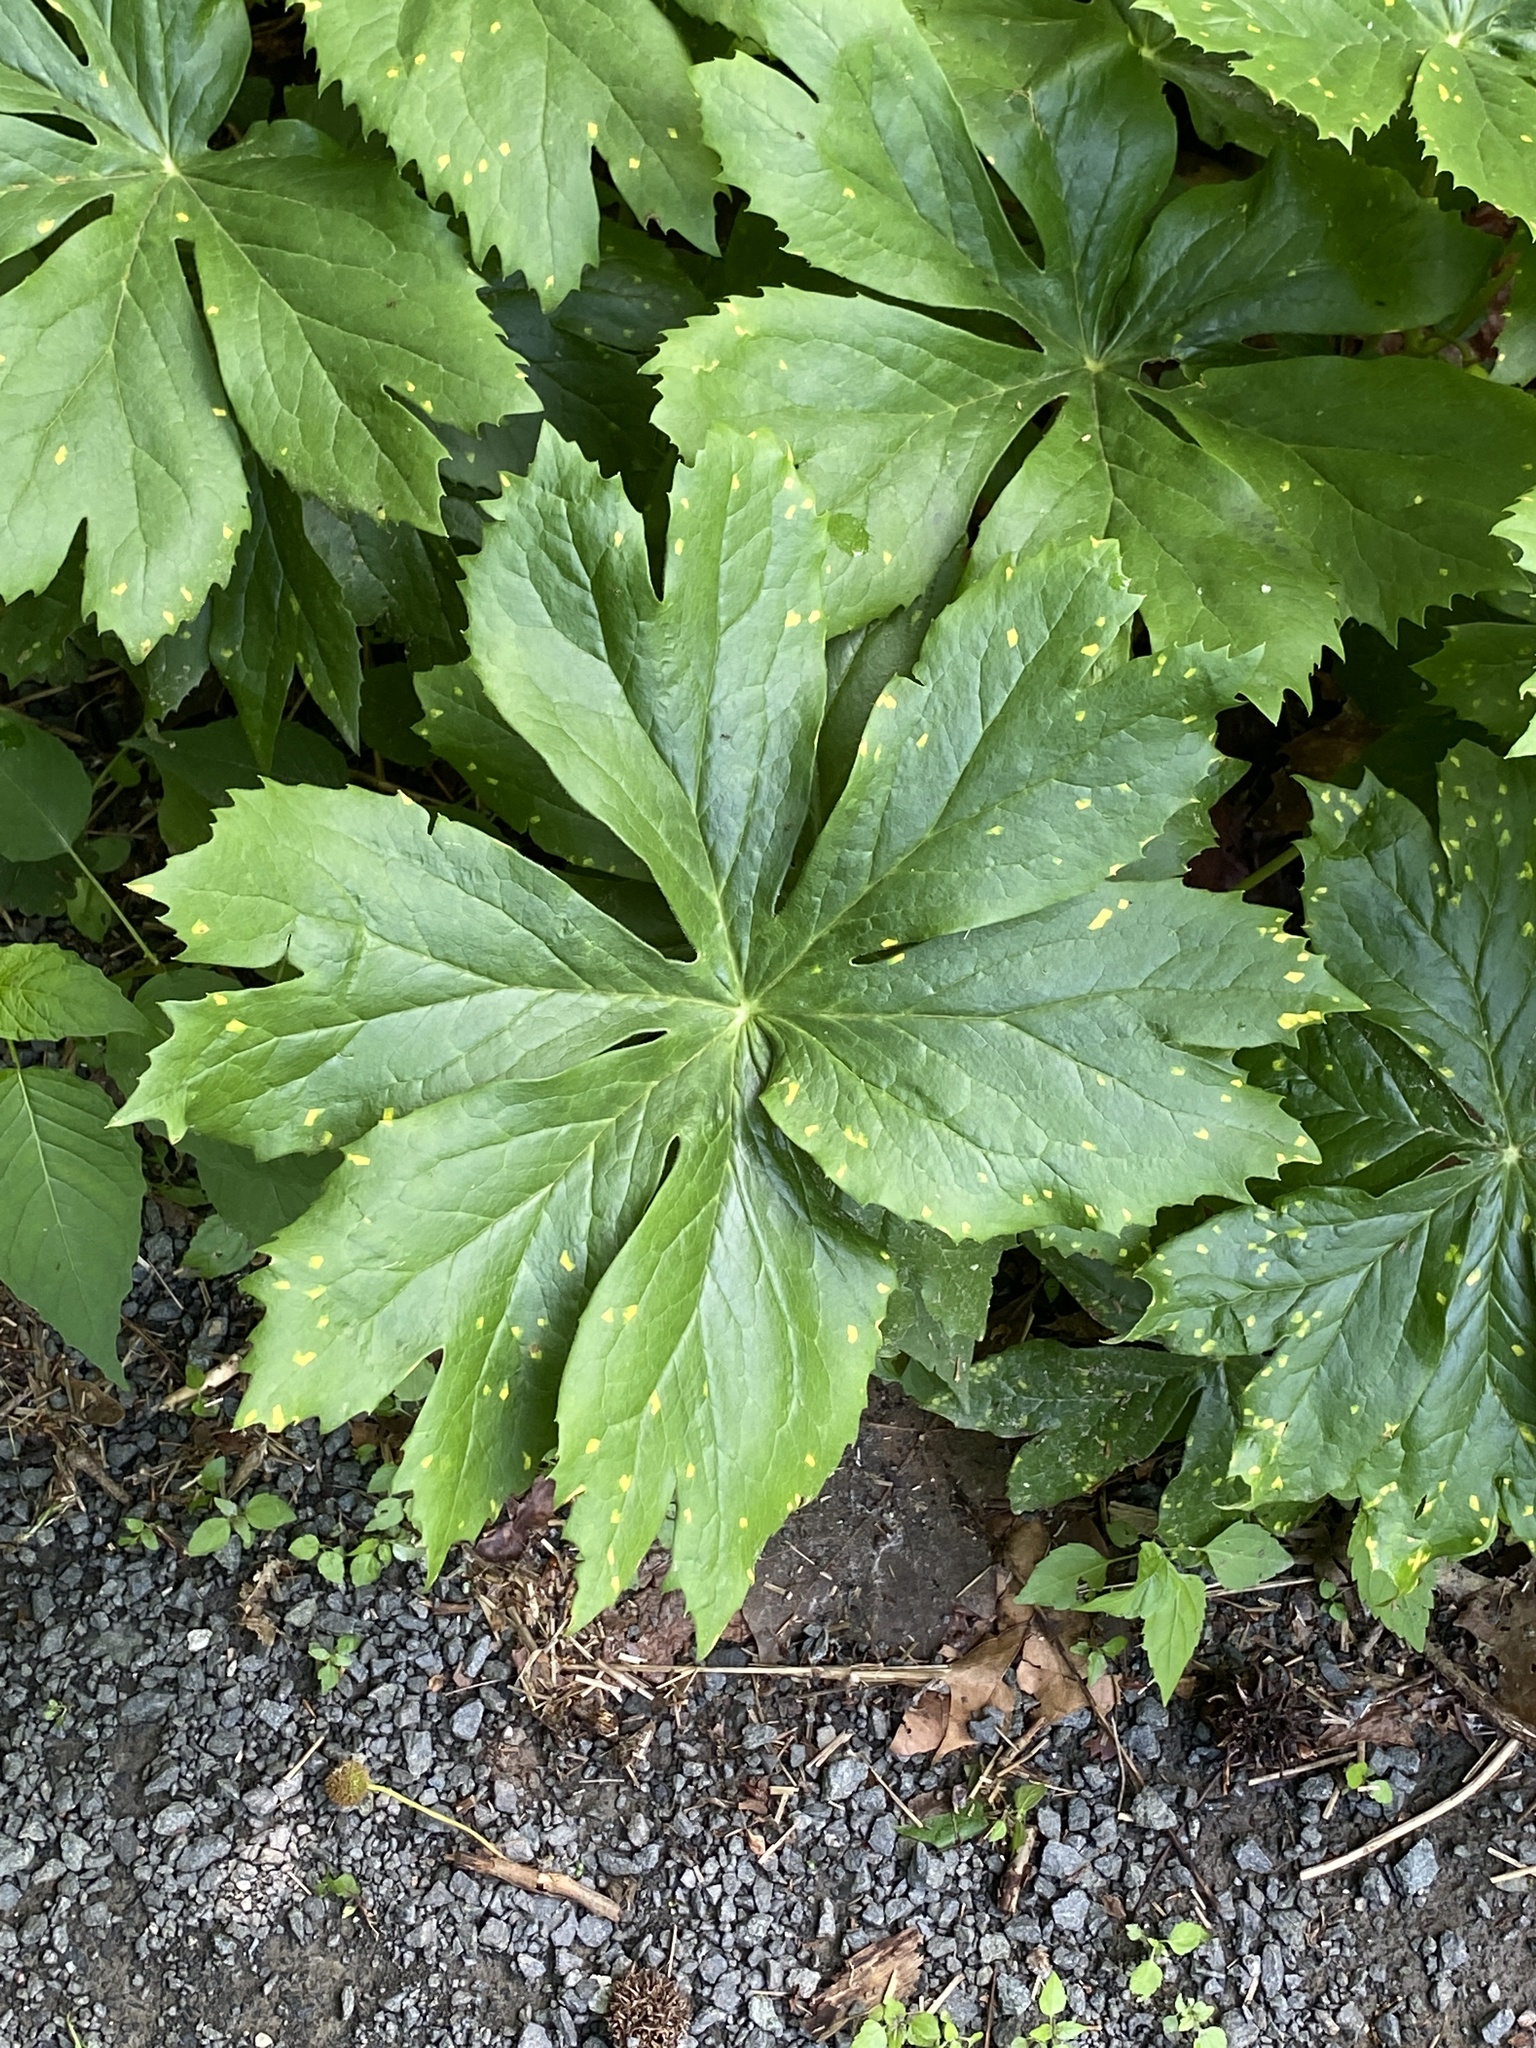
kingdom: Plantae
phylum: Tracheophyta
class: Magnoliopsida
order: Ranunculales
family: Berberidaceae
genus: Podophyllum
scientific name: Podophyllum peltatum
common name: Wild mandrake
